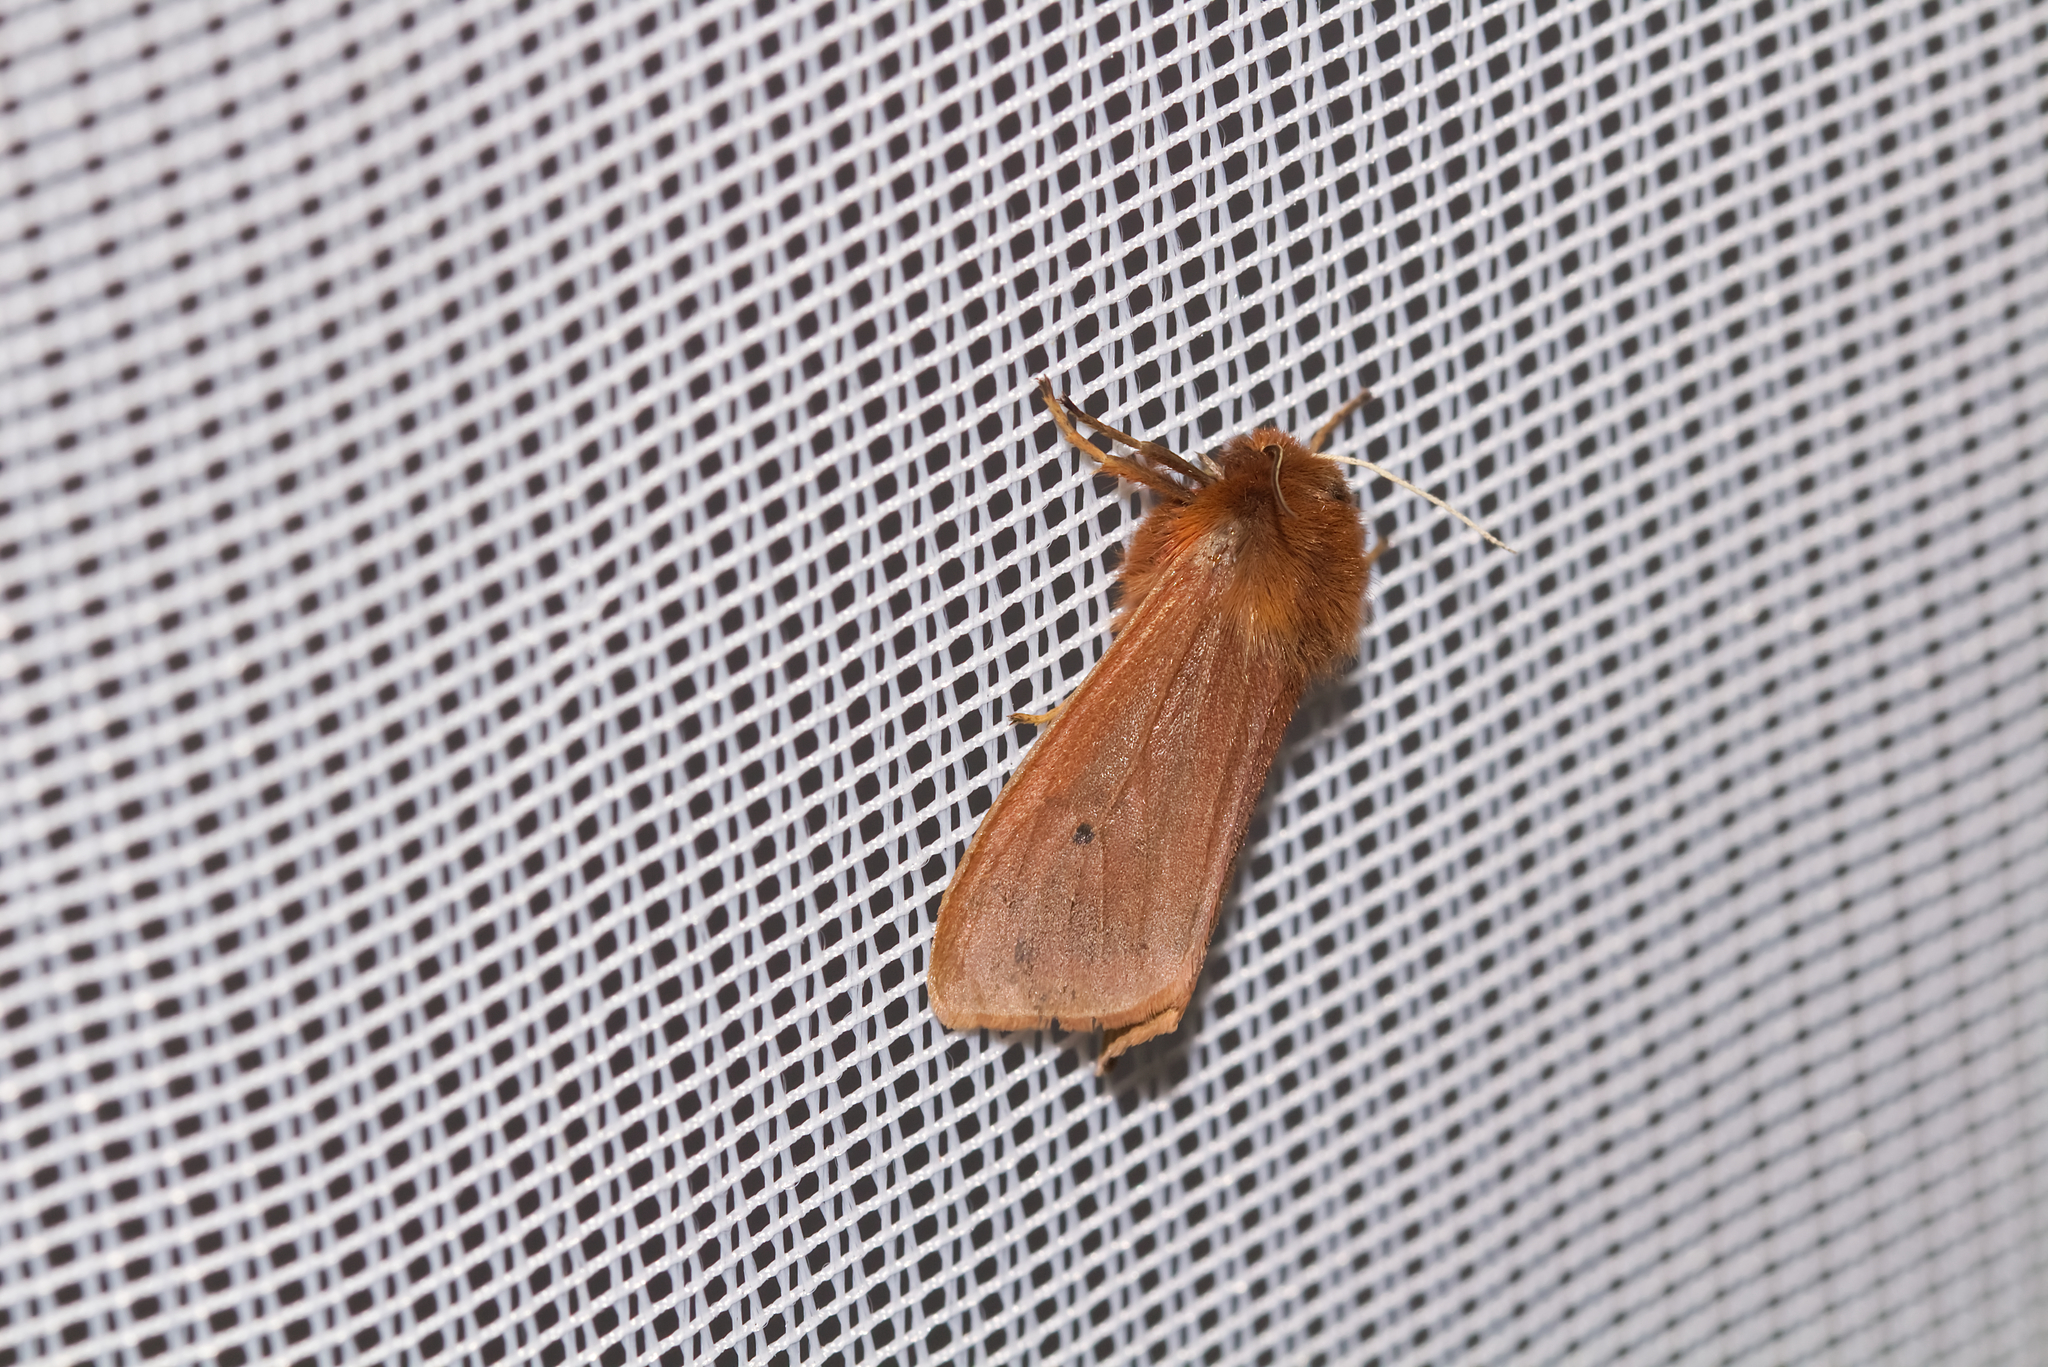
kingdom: Animalia
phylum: Arthropoda
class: Insecta
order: Lepidoptera
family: Erebidae
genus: Phragmatobia
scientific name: Phragmatobia fuliginosa
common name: Ruby tiger
